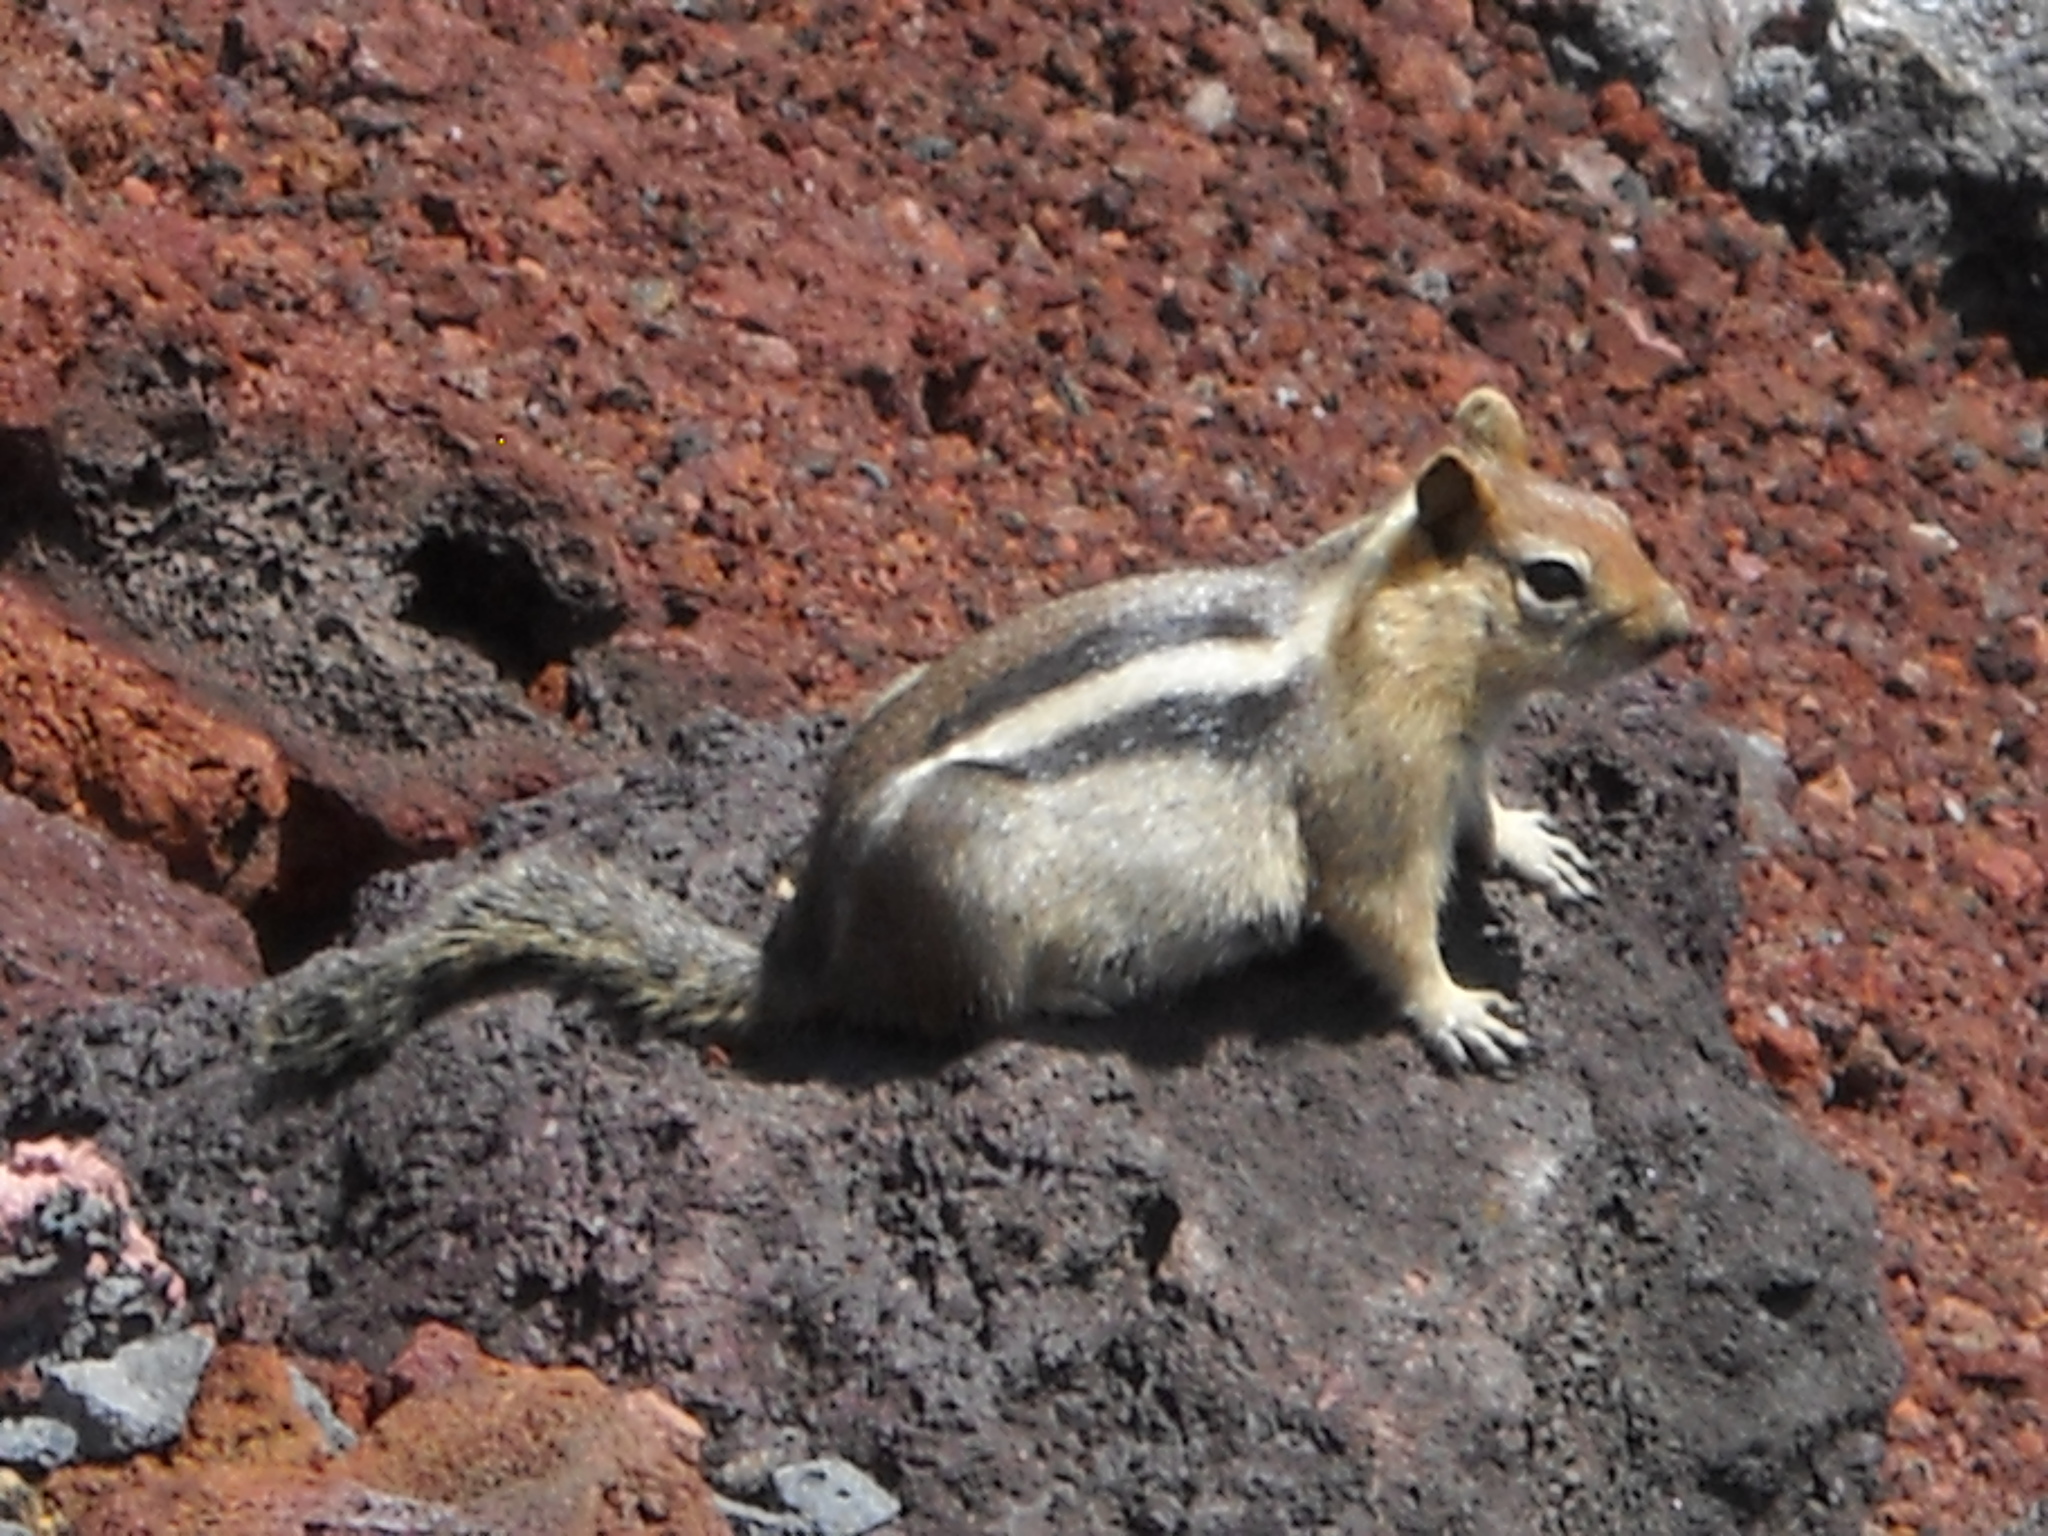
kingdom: Animalia
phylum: Chordata
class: Mammalia
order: Rodentia
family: Sciuridae
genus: Callospermophilus
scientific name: Callospermophilus lateralis
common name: Golden-mantled ground squirrel
